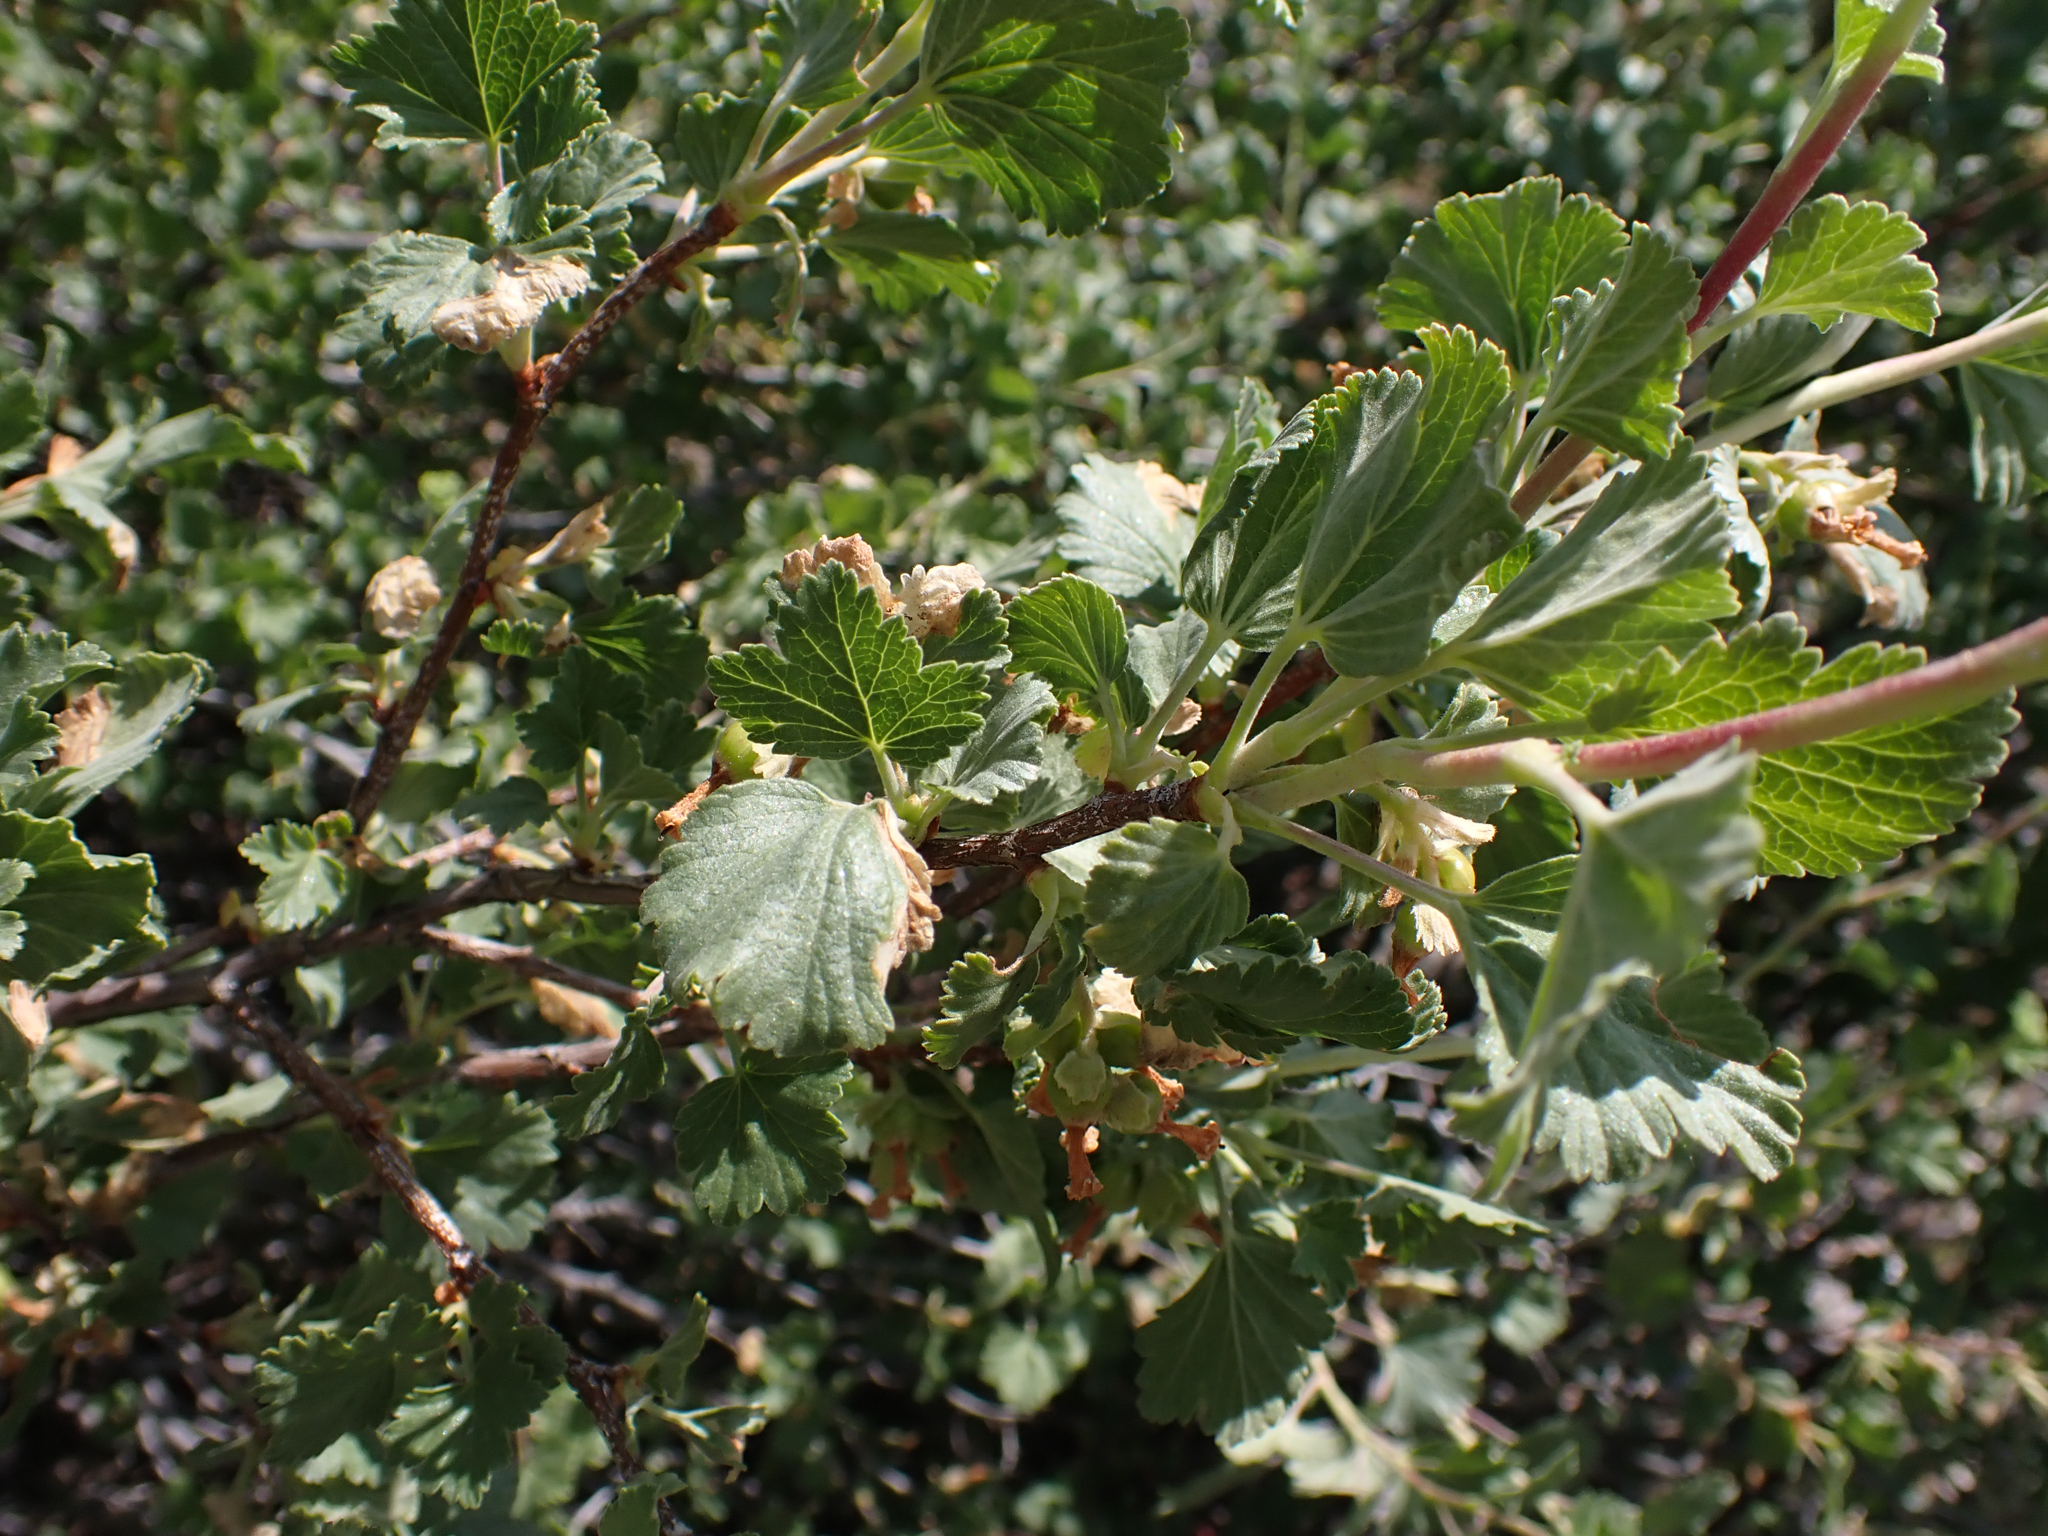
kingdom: Plantae
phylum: Tracheophyta
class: Magnoliopsida
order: Saxifragales
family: Grossulariaceae
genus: Ribes
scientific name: Ribes cereum
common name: Wax currant
